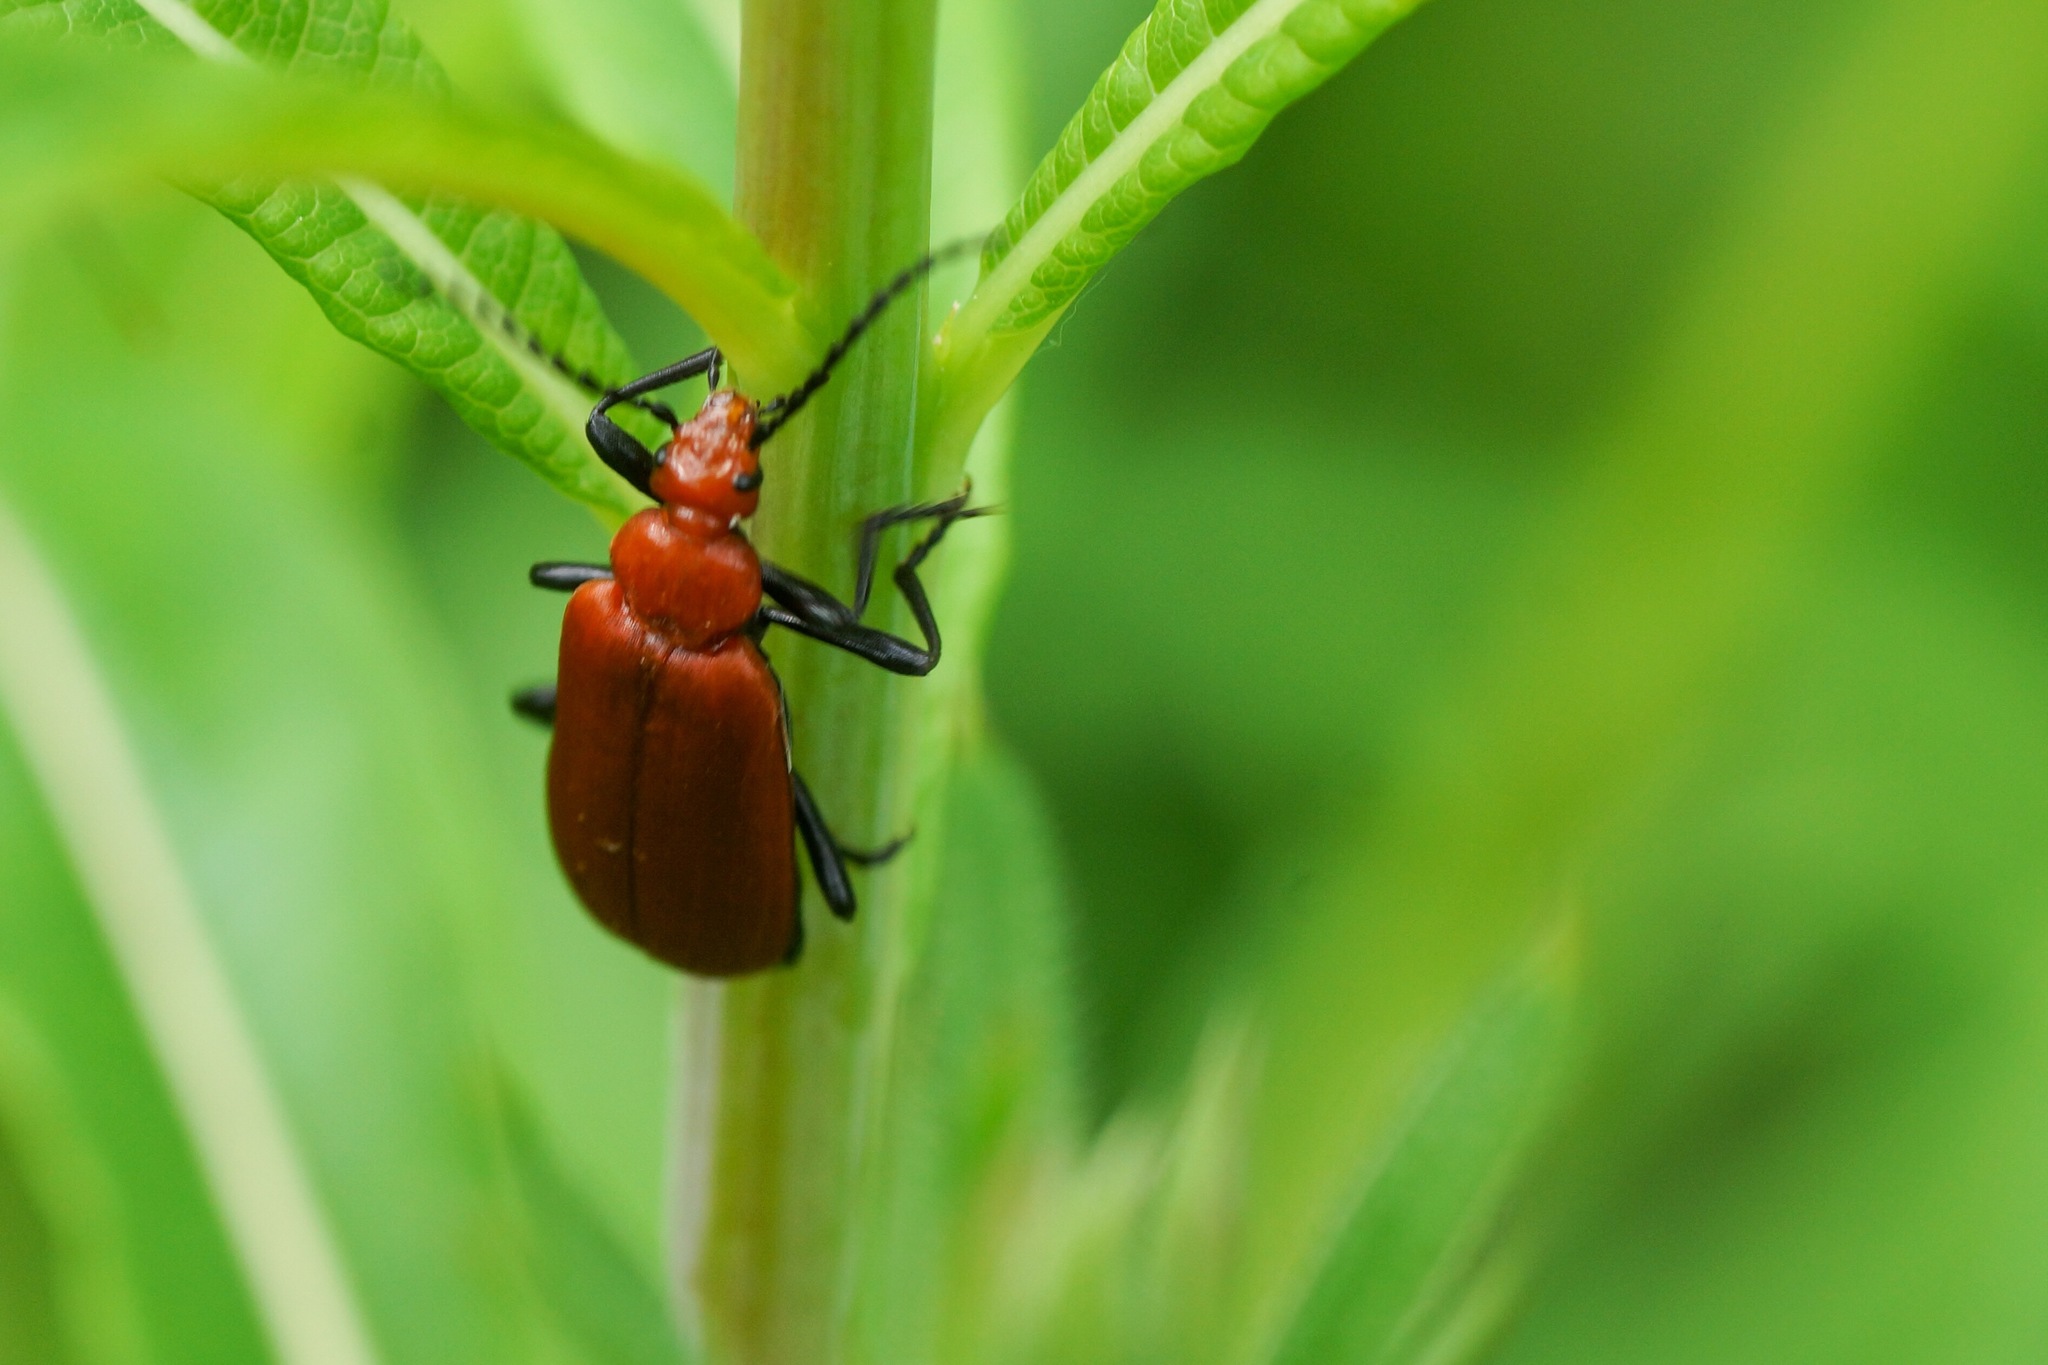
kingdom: Animalia
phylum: Arthropoda
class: Insecta
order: Coleoptera
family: Pyrochroidae
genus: Pyrochroa
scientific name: Pyrochroa serraticornis
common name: Red-headed cardinal beetle
